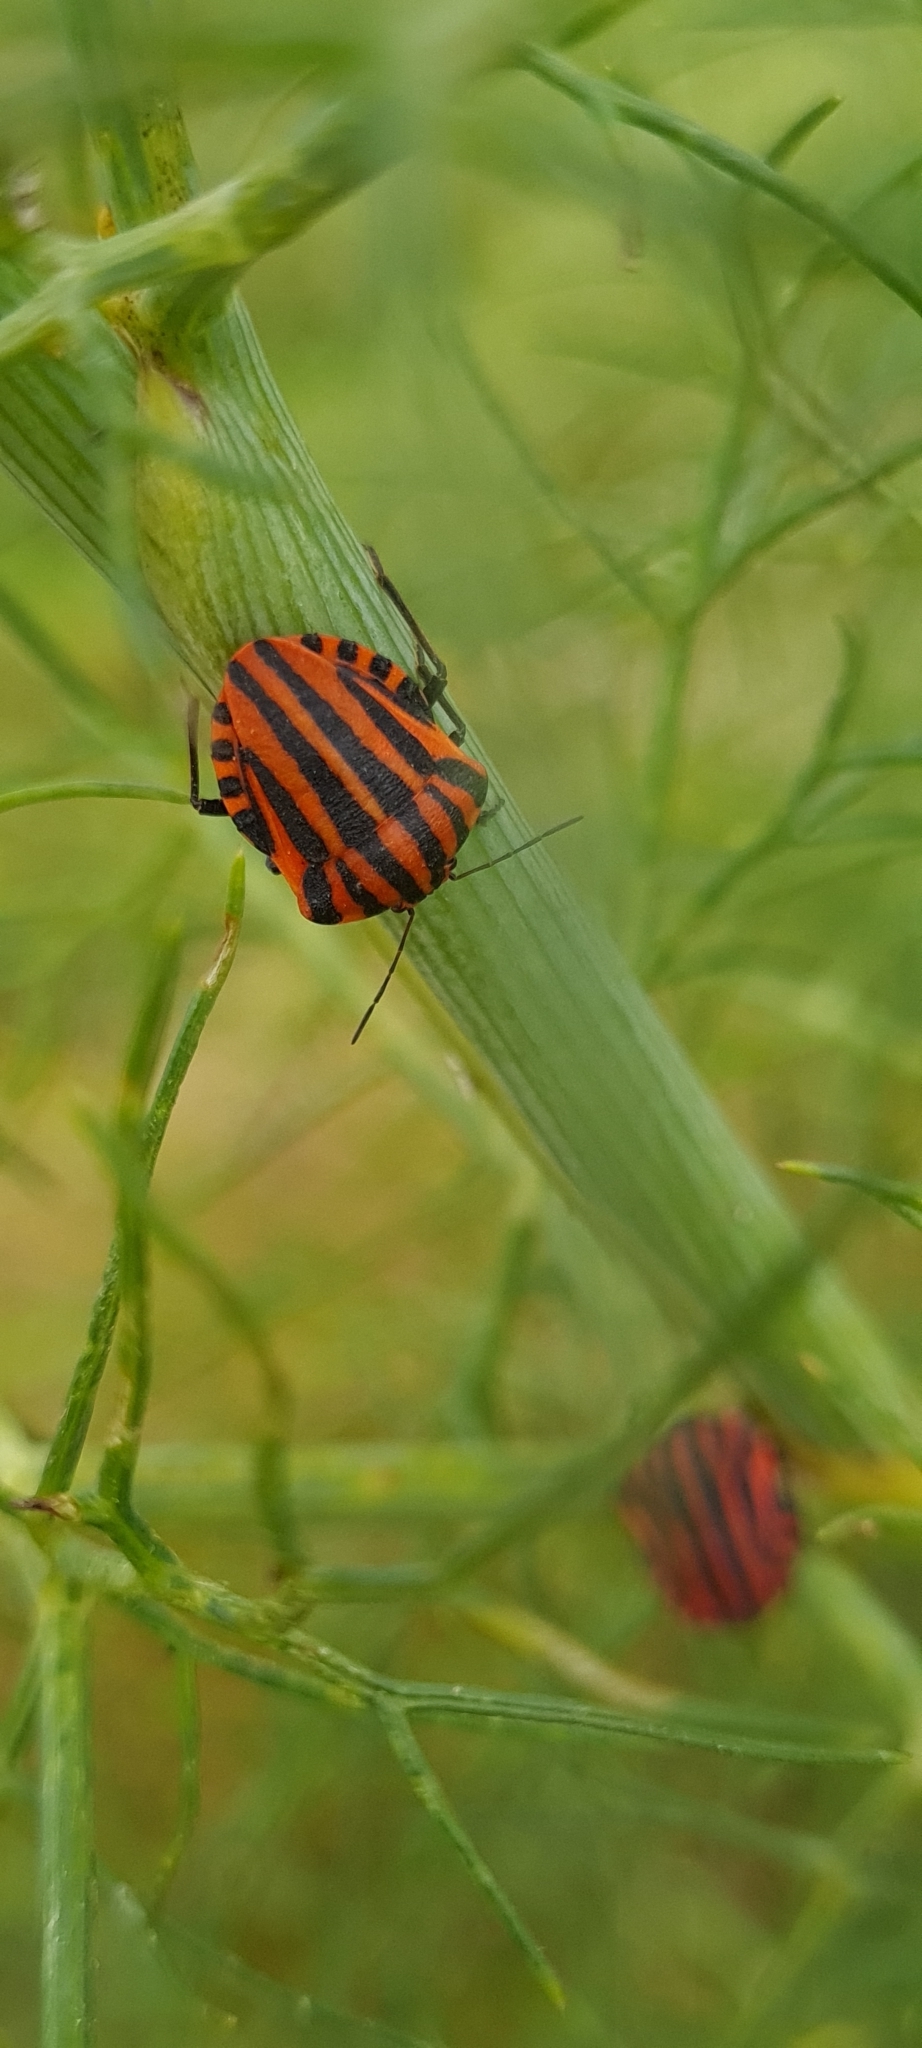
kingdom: Animalia
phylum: Arthropoda
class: Insecta
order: Hemiptera
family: Pentatomidae
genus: Graphosoma
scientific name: Graphosoma italicum
